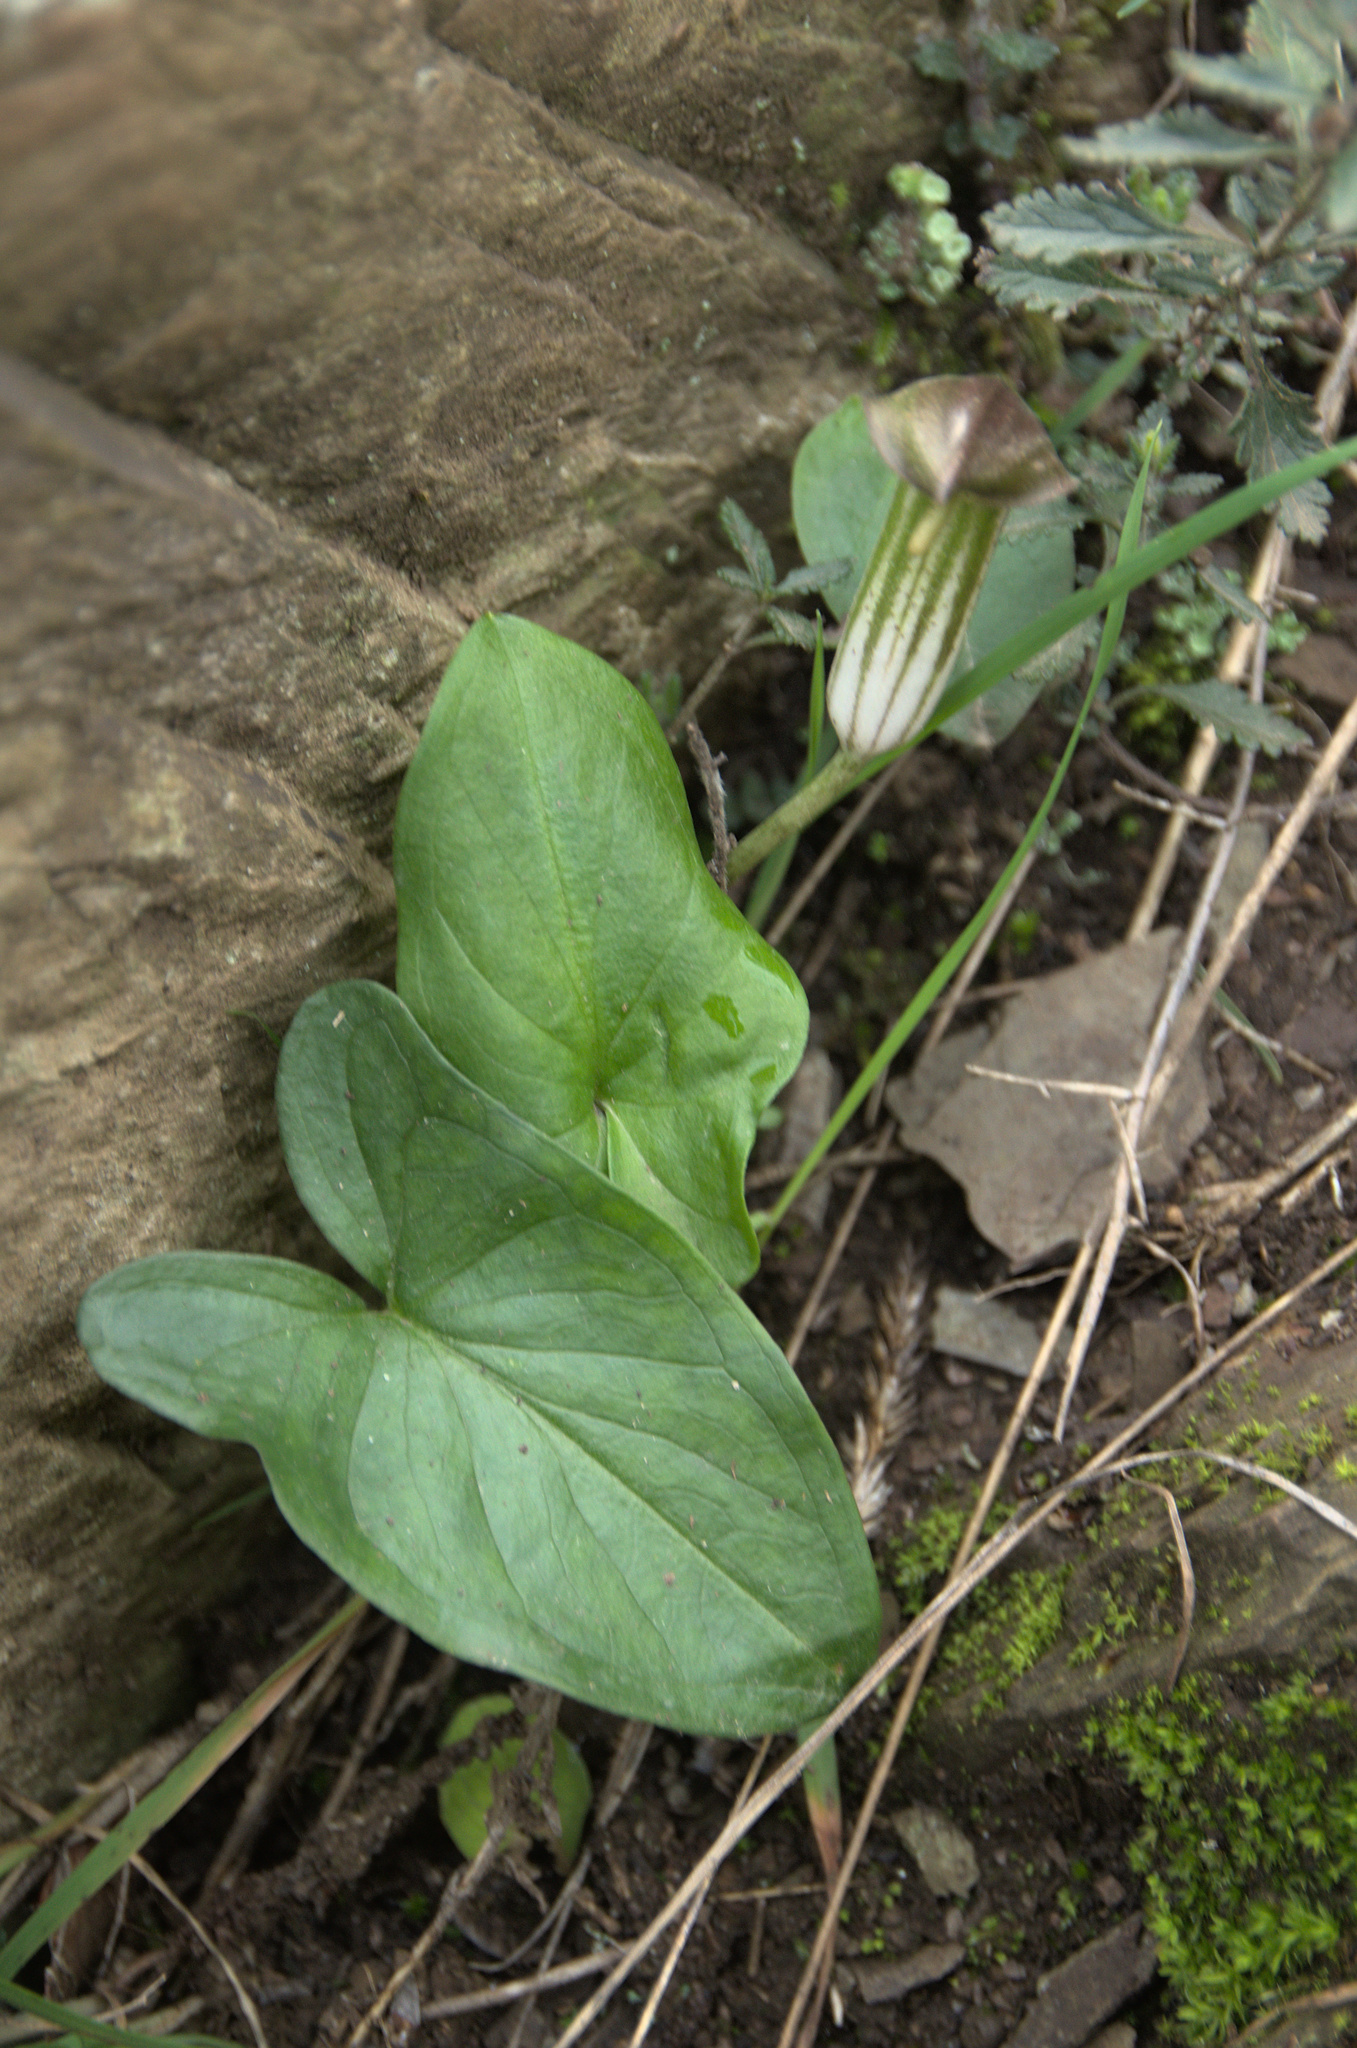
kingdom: Plantae
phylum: Tracheophyta
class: Liliopsida
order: Alismatales
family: Araceae
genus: Arisarum
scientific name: Arisarum vulgare
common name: Common arisarum
